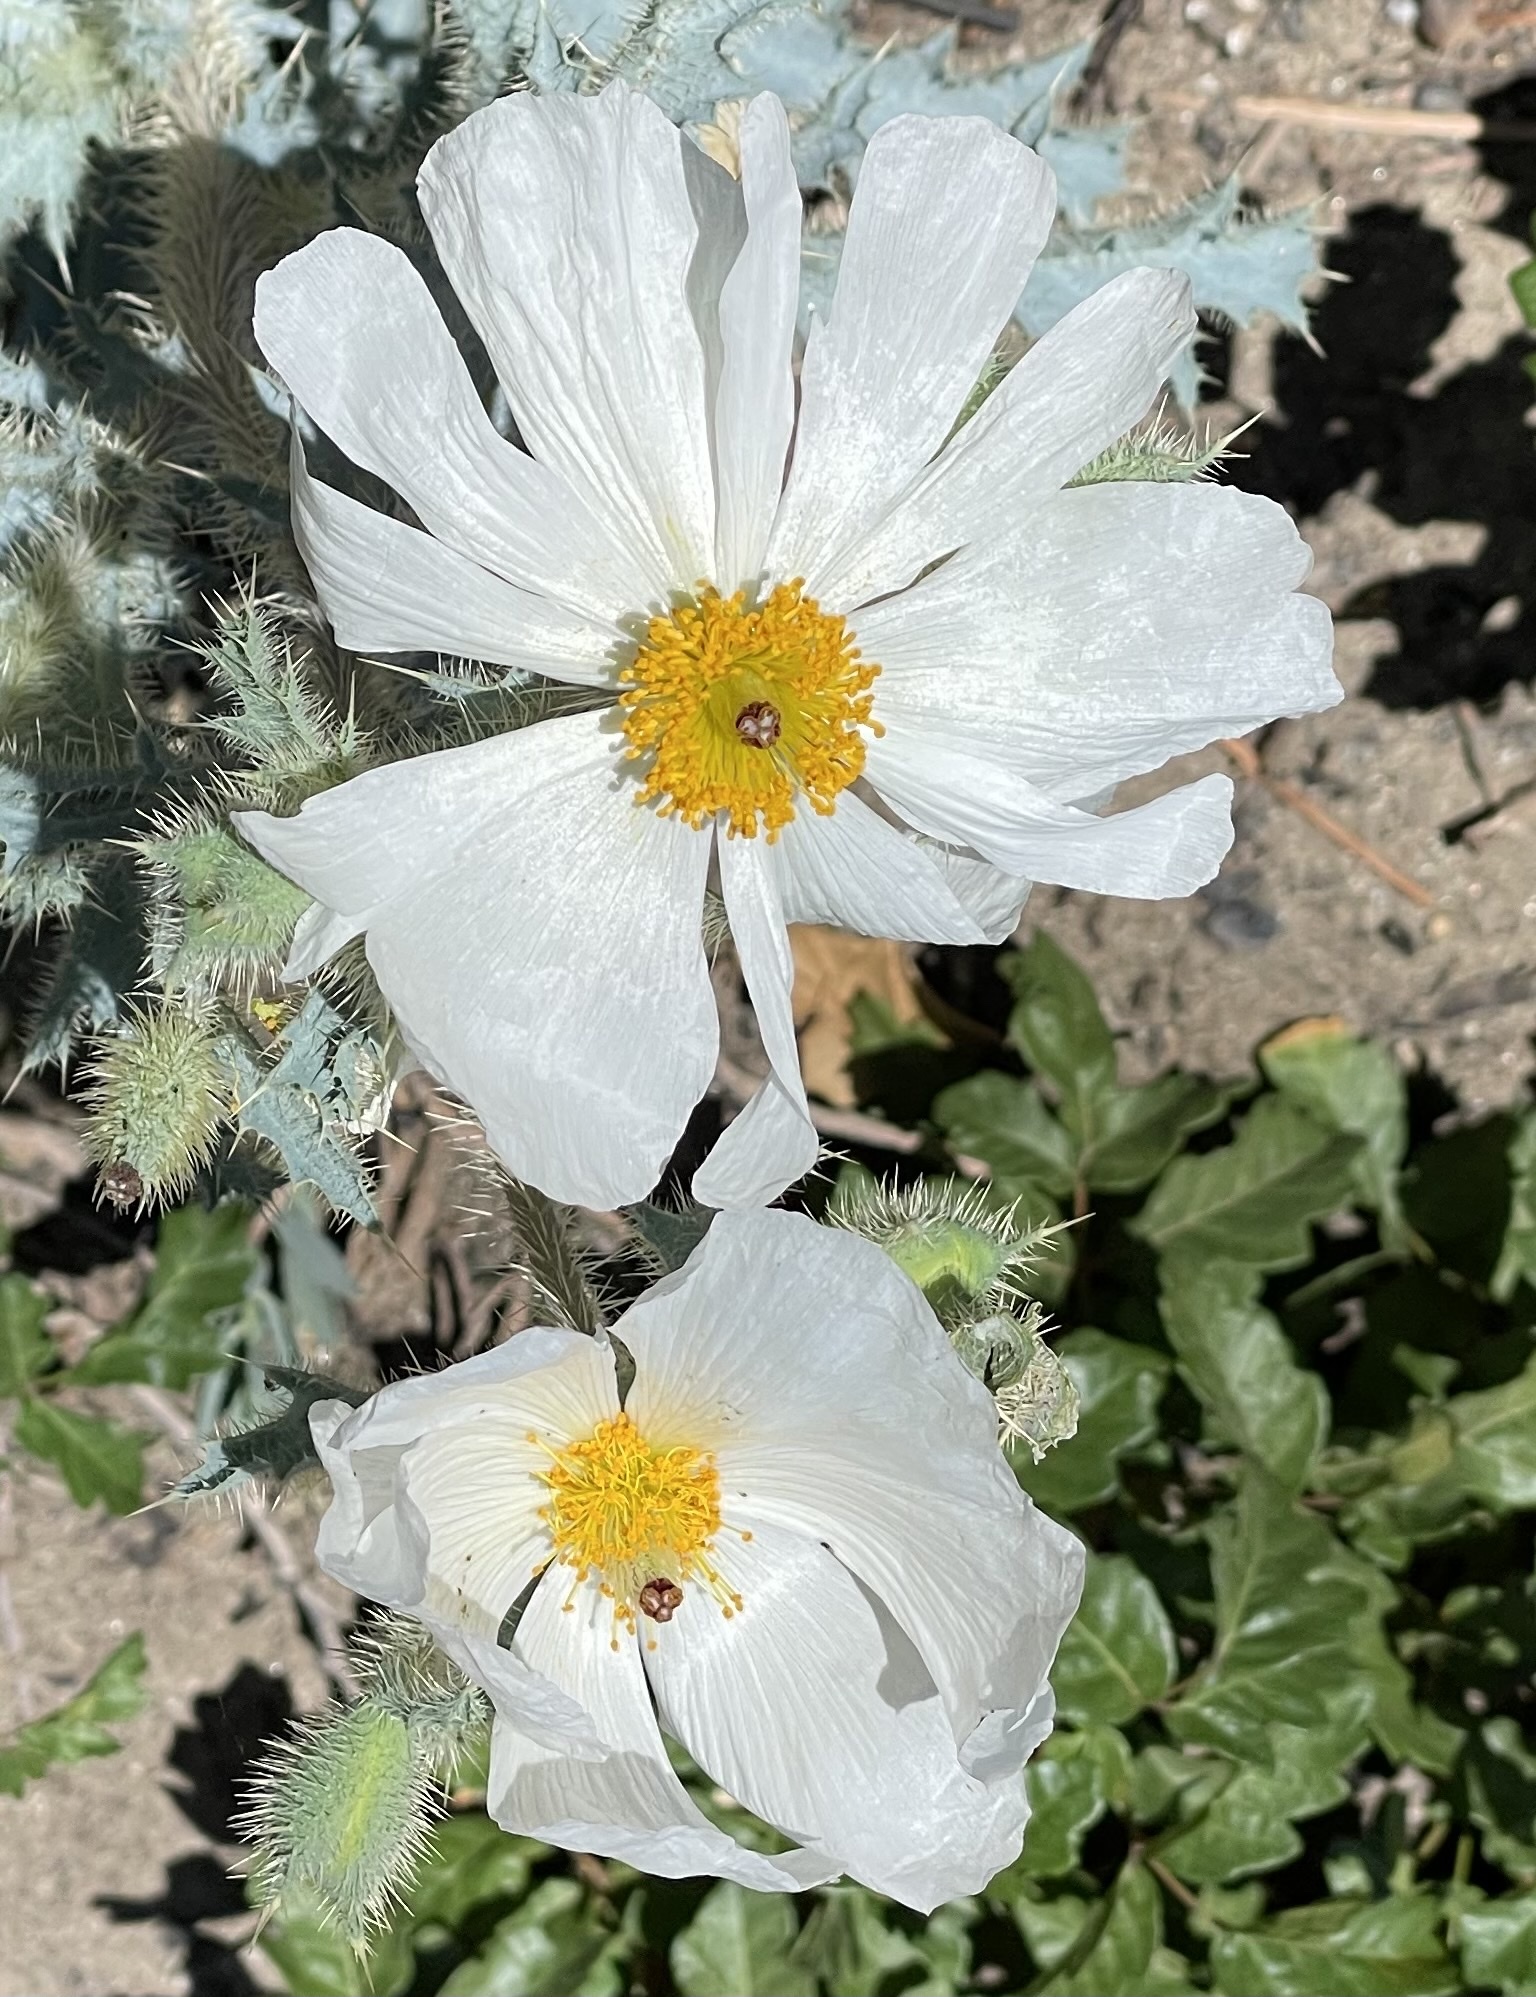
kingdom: Plantae
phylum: Tracheophyta
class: Magnoliopsida
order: Ranunculales
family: Papaveraceae
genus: Argemone
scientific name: Argemone munita
